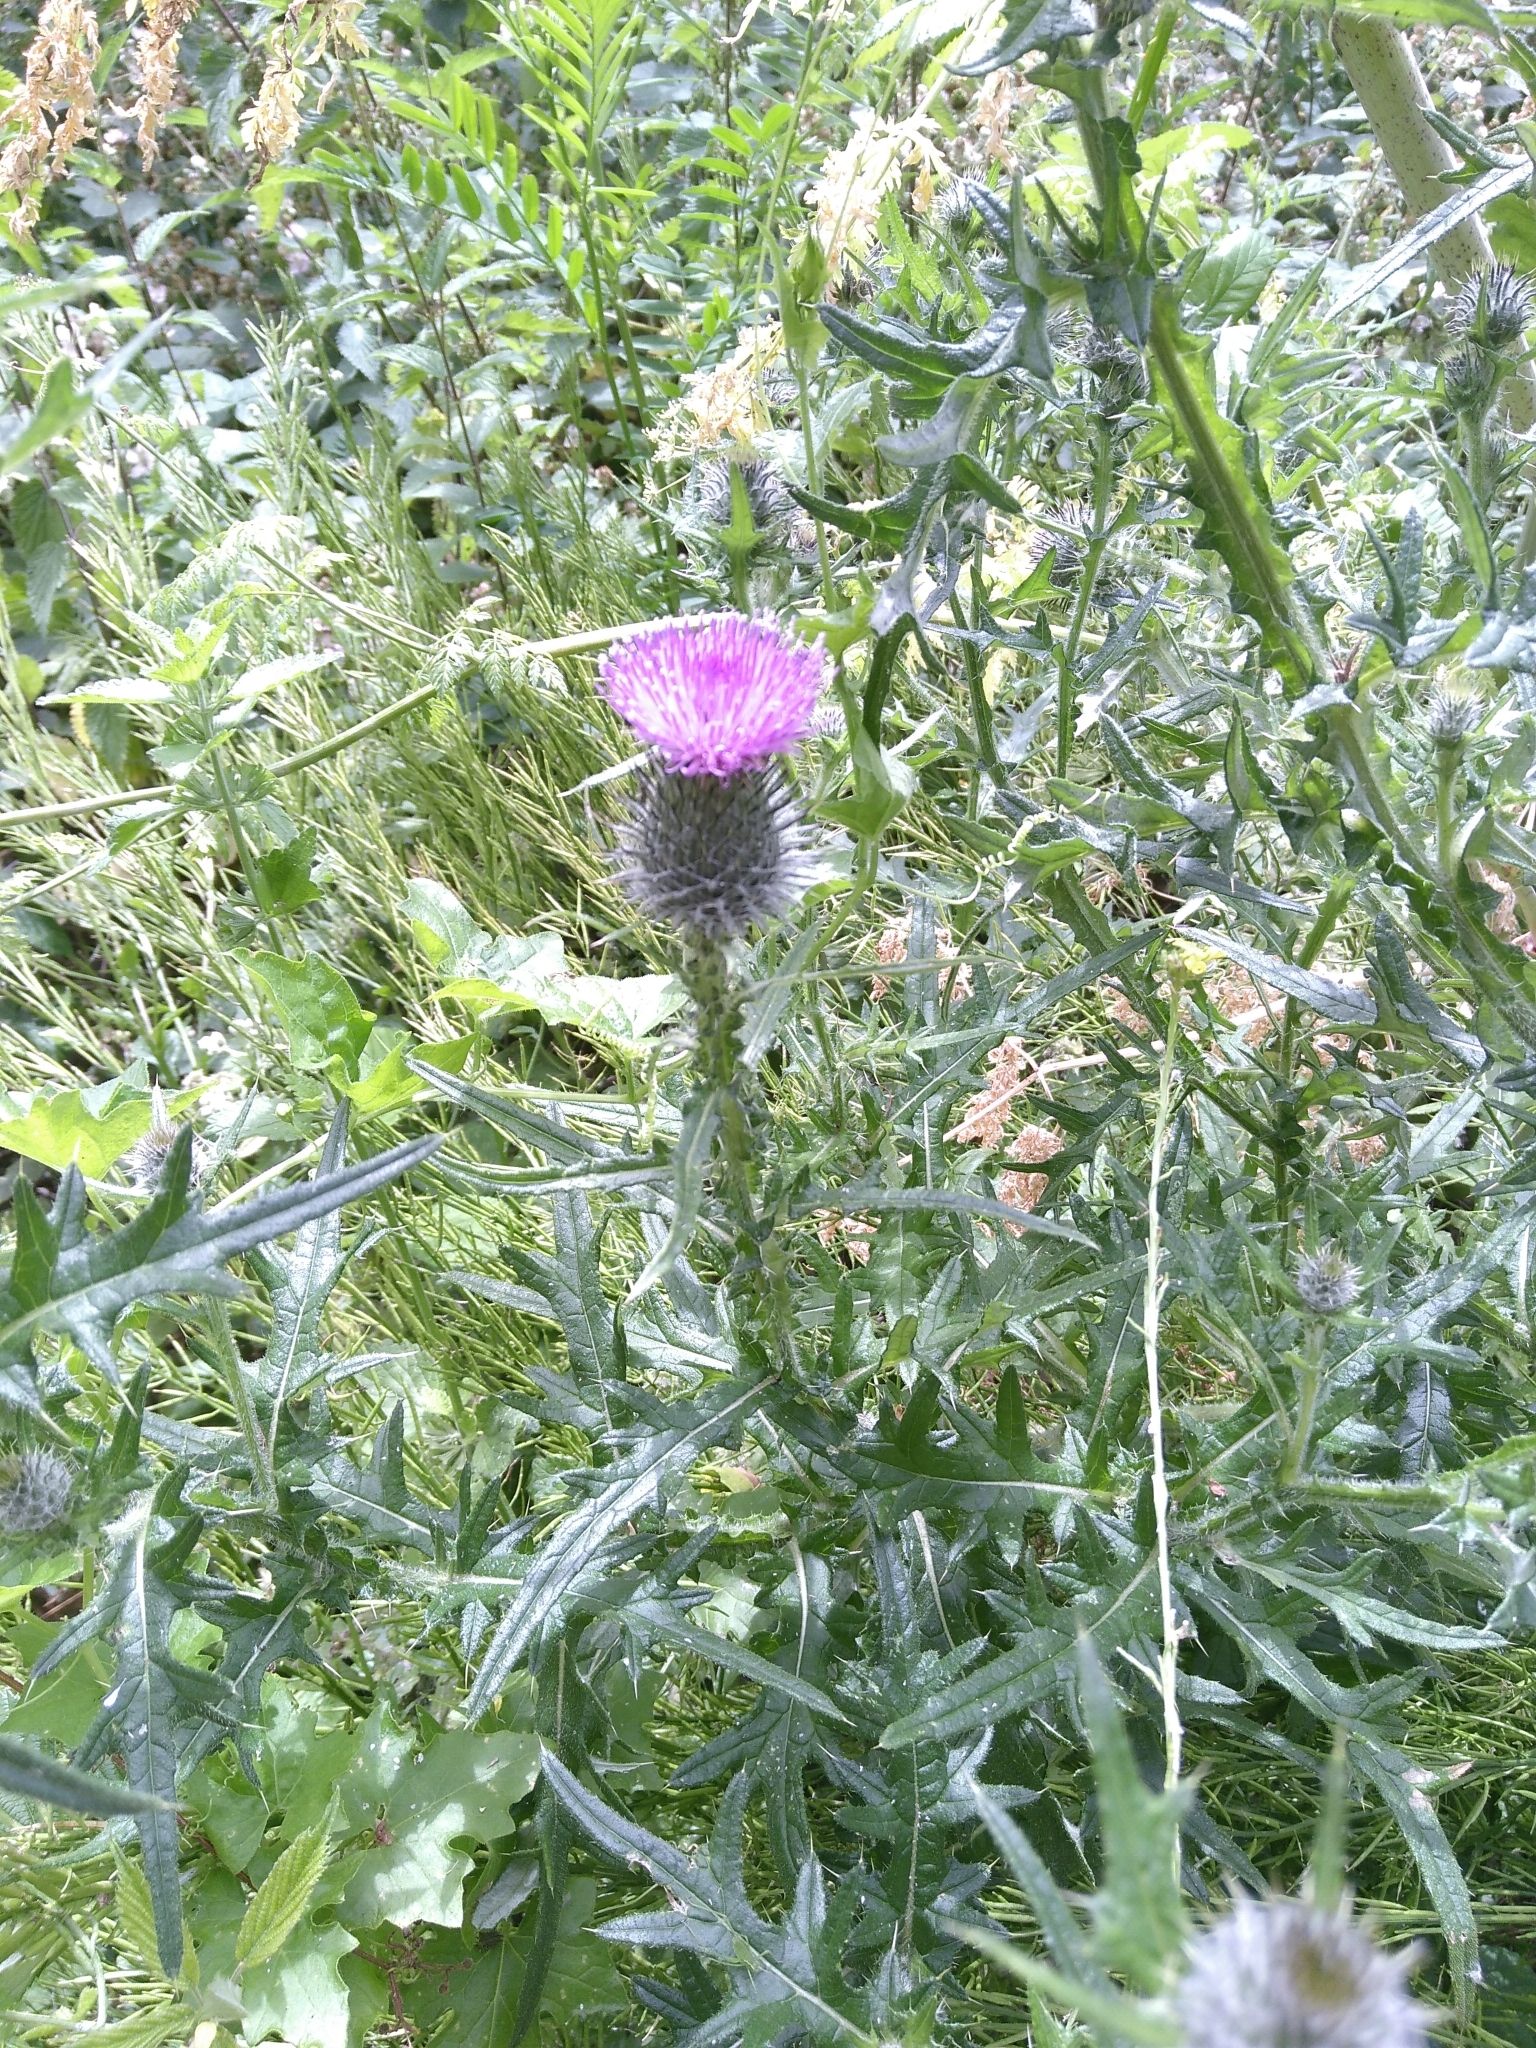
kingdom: Plantae
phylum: Tracheophyta
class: Magnoliopsida
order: Asterales
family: Asteraceae
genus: Cirsium
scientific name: Cirsium vulgare
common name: Bull thistle
